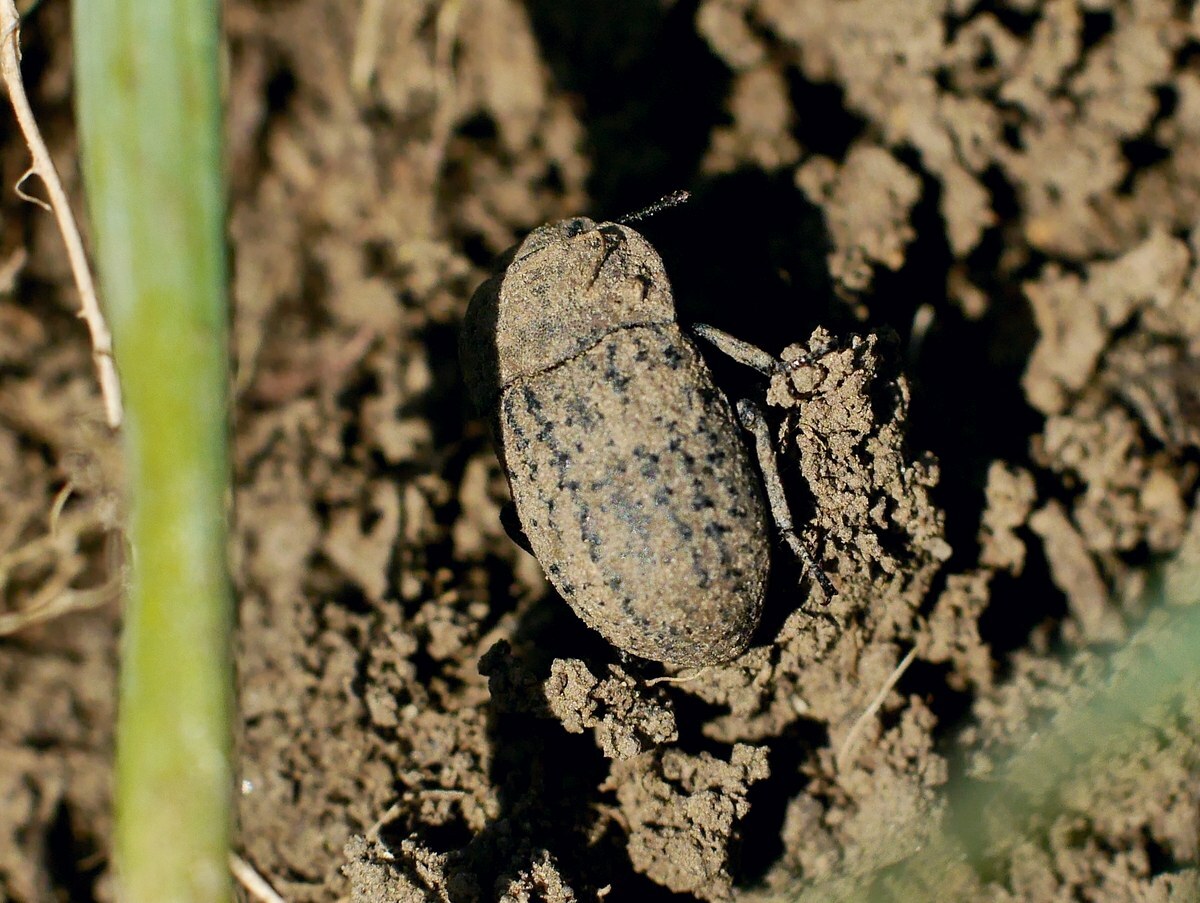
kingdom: Animalia
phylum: Arthropoda
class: Insecta
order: Coleoptera
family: Tenebrionidae
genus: Opatrum
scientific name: Opatrum sabulosum
